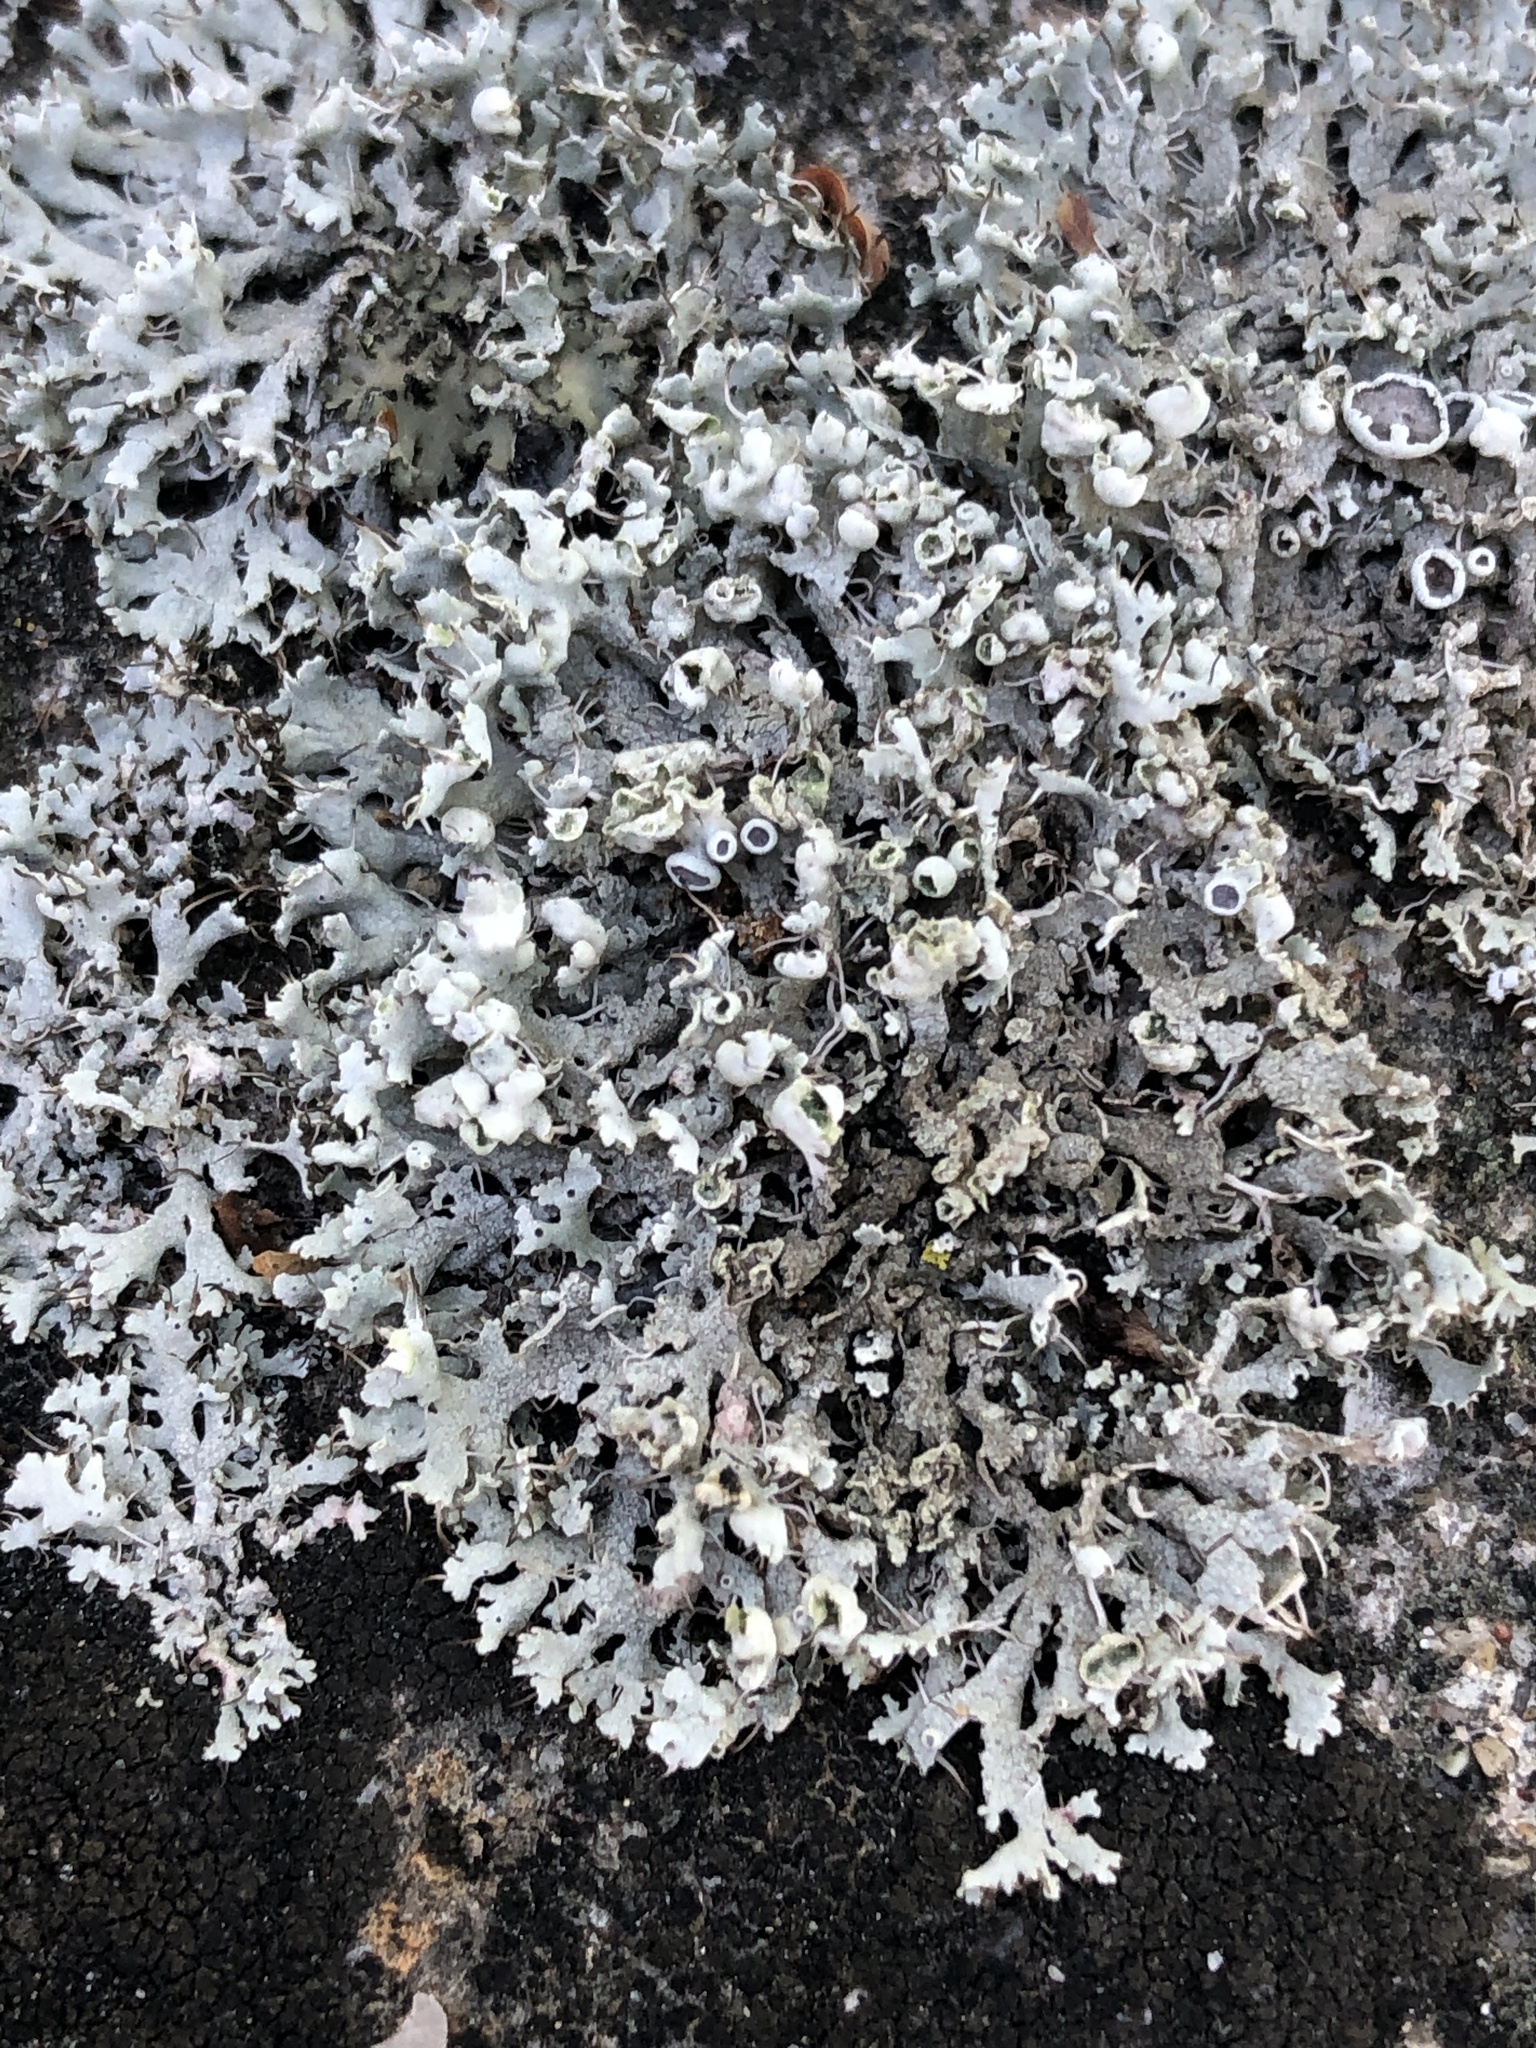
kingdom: Fungi
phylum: Ascomycota
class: Lecanoromycetes
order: Caliciales
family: Physciaceae
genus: Physcia
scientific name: Physcia adscendens
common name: Hooded rosette lichen
